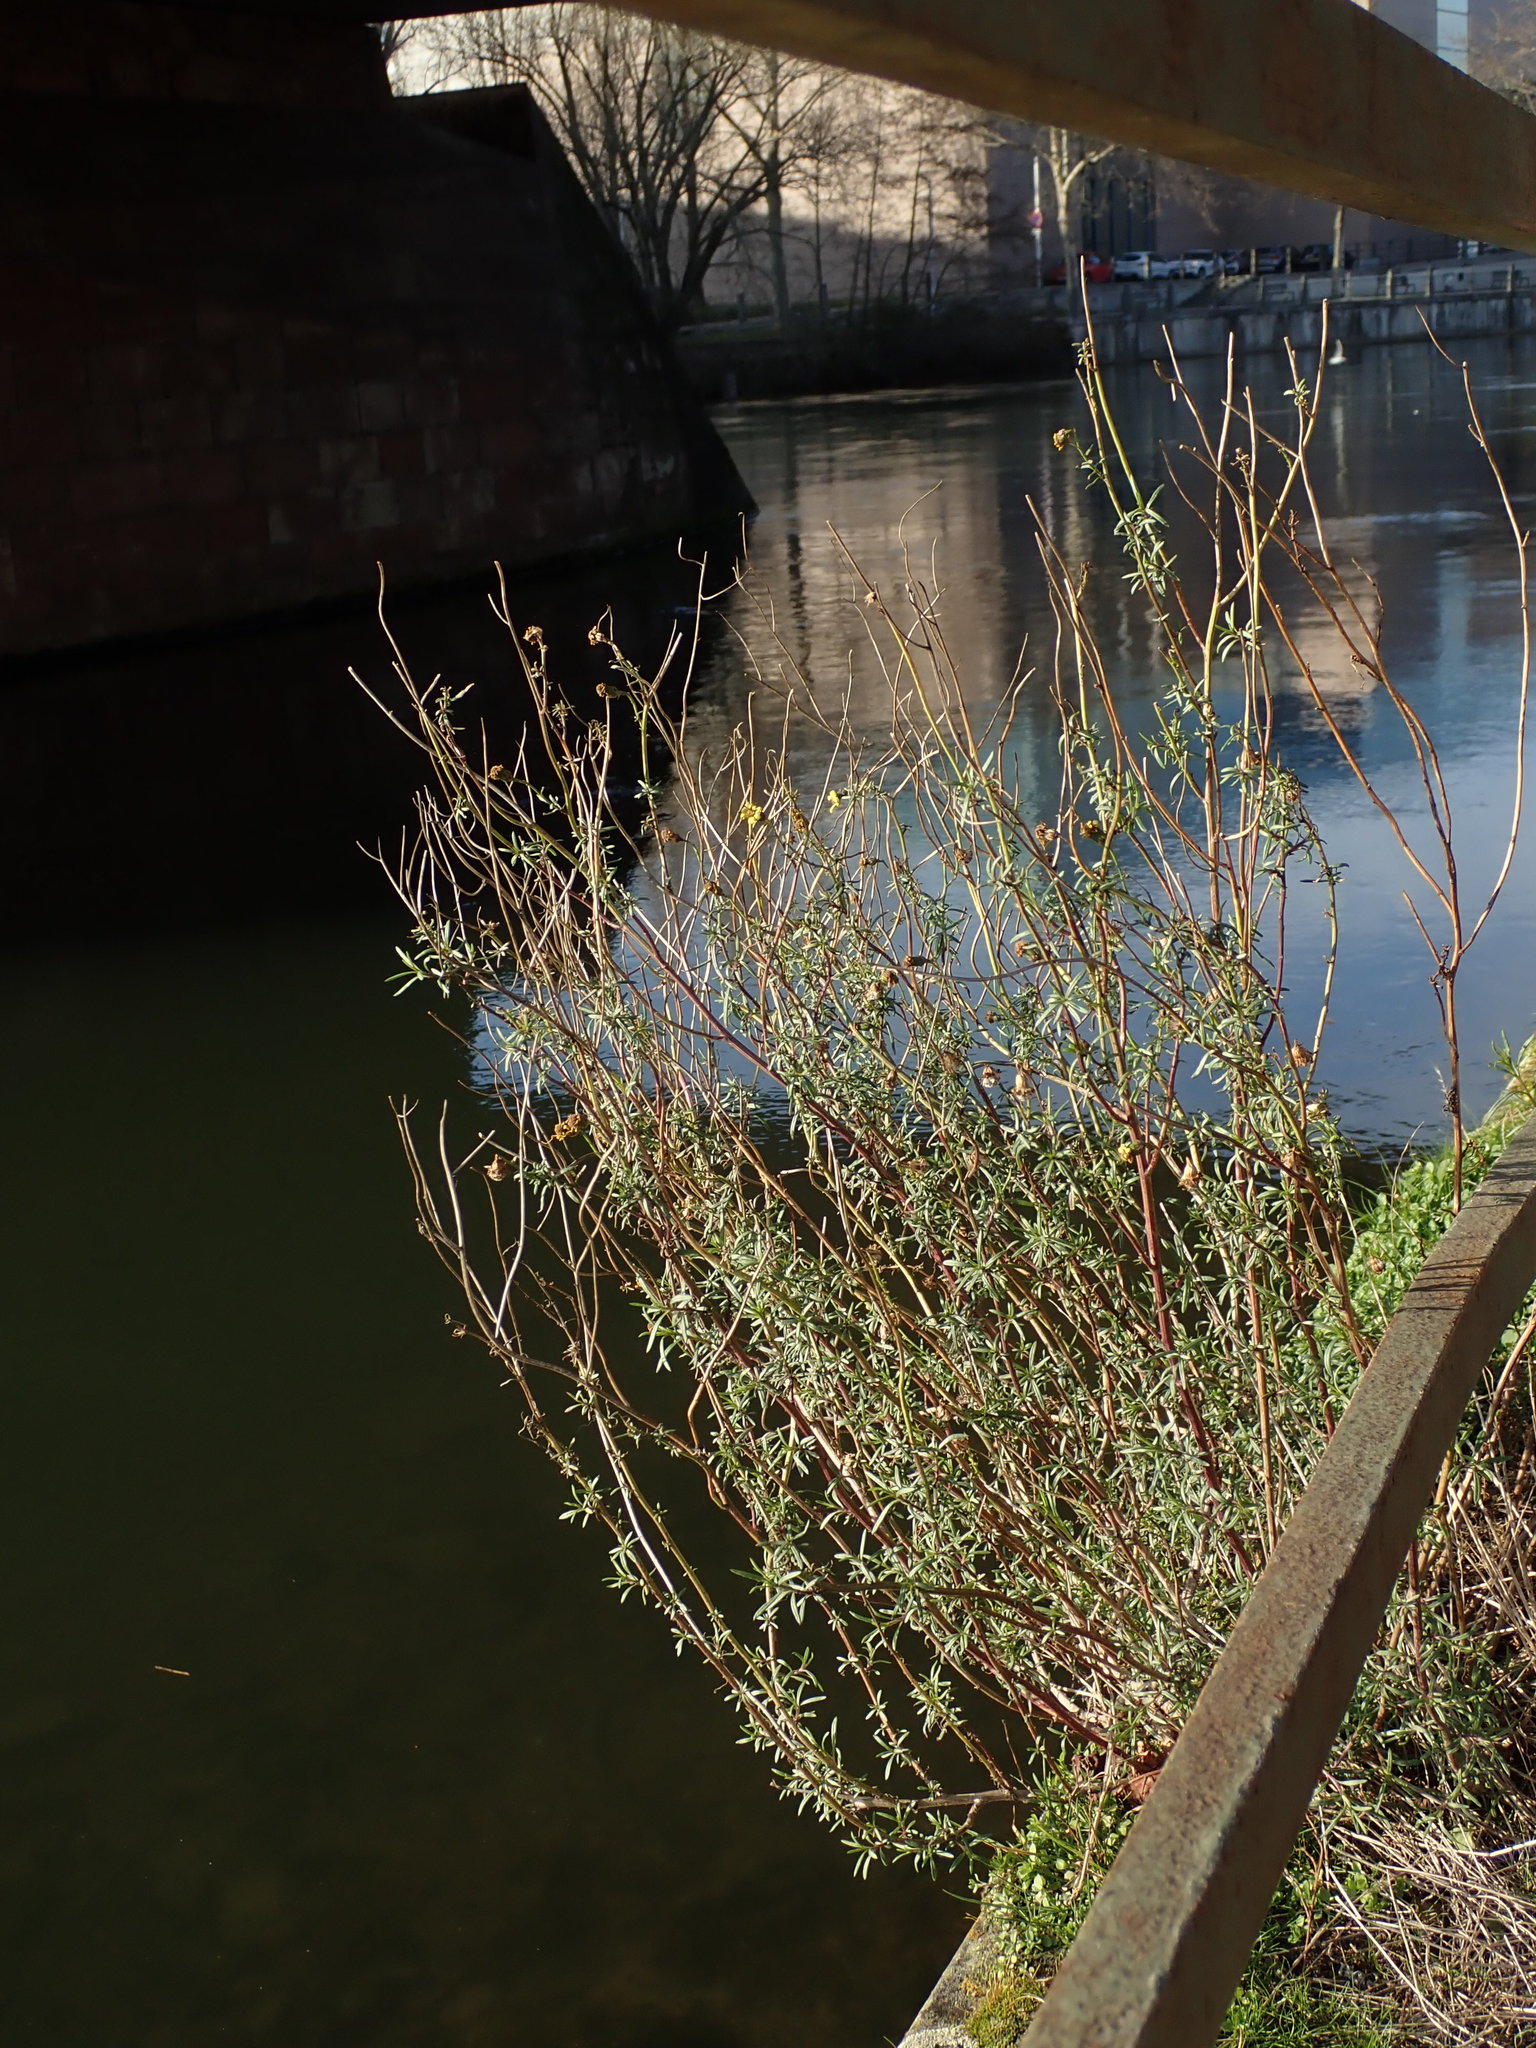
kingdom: Plantae
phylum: Tracheophyta
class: Magnoliopsida
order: Asterales
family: Asteraceae
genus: Senecio
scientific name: Senecio inaequidens
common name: Narrow-leaved ragwort
